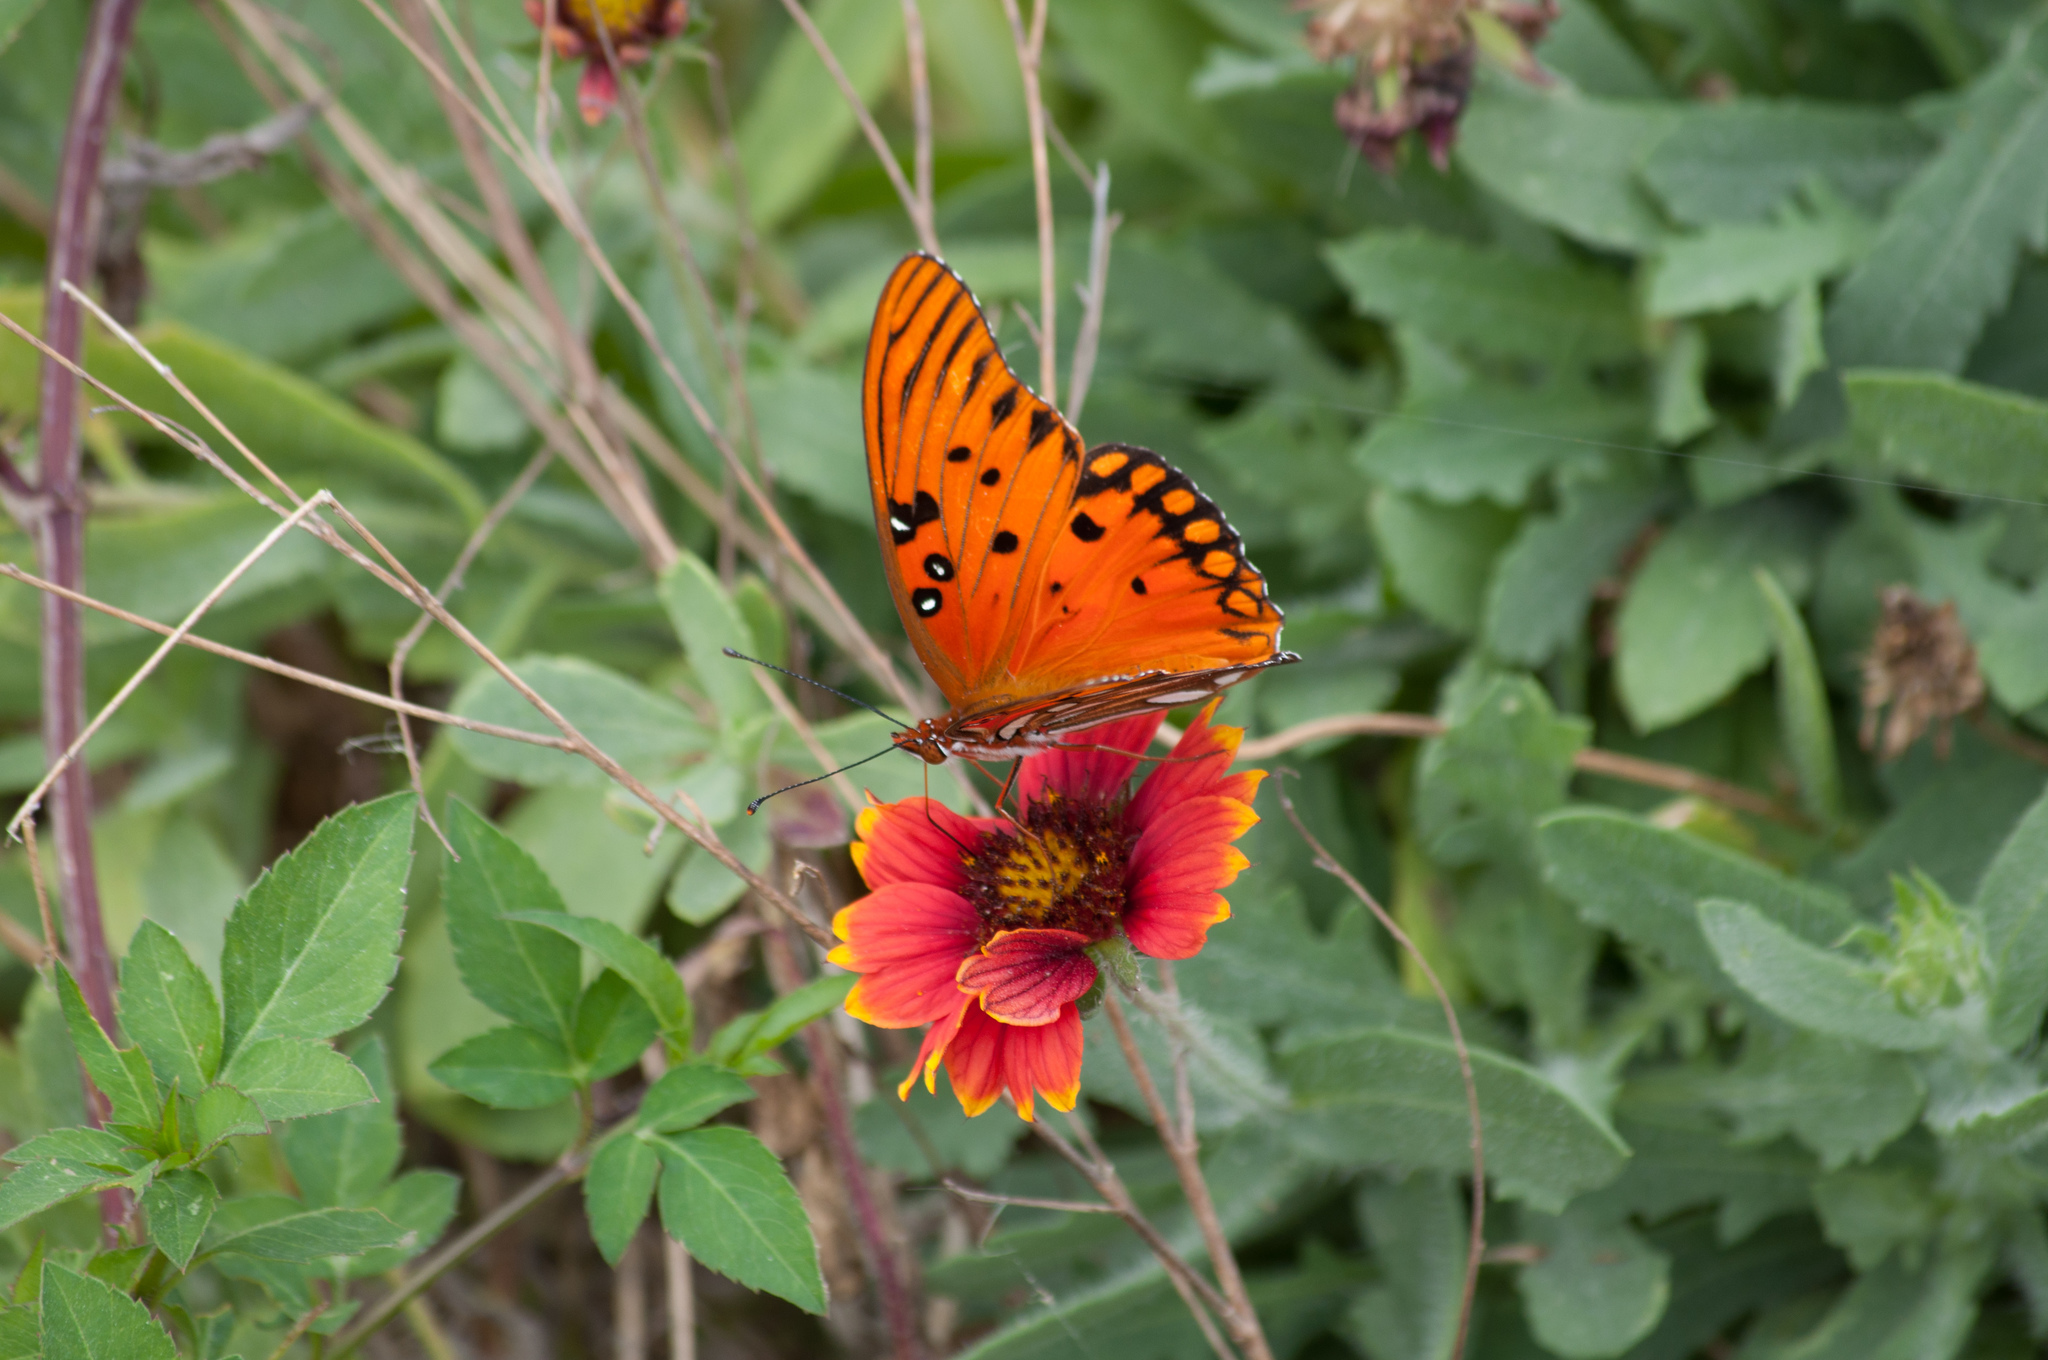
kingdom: Animalia
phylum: Arthropoda
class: Insecta
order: Lepidoptera
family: Nymphalidae
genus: Dione
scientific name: Dione vanillae
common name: Gulf fritillary
